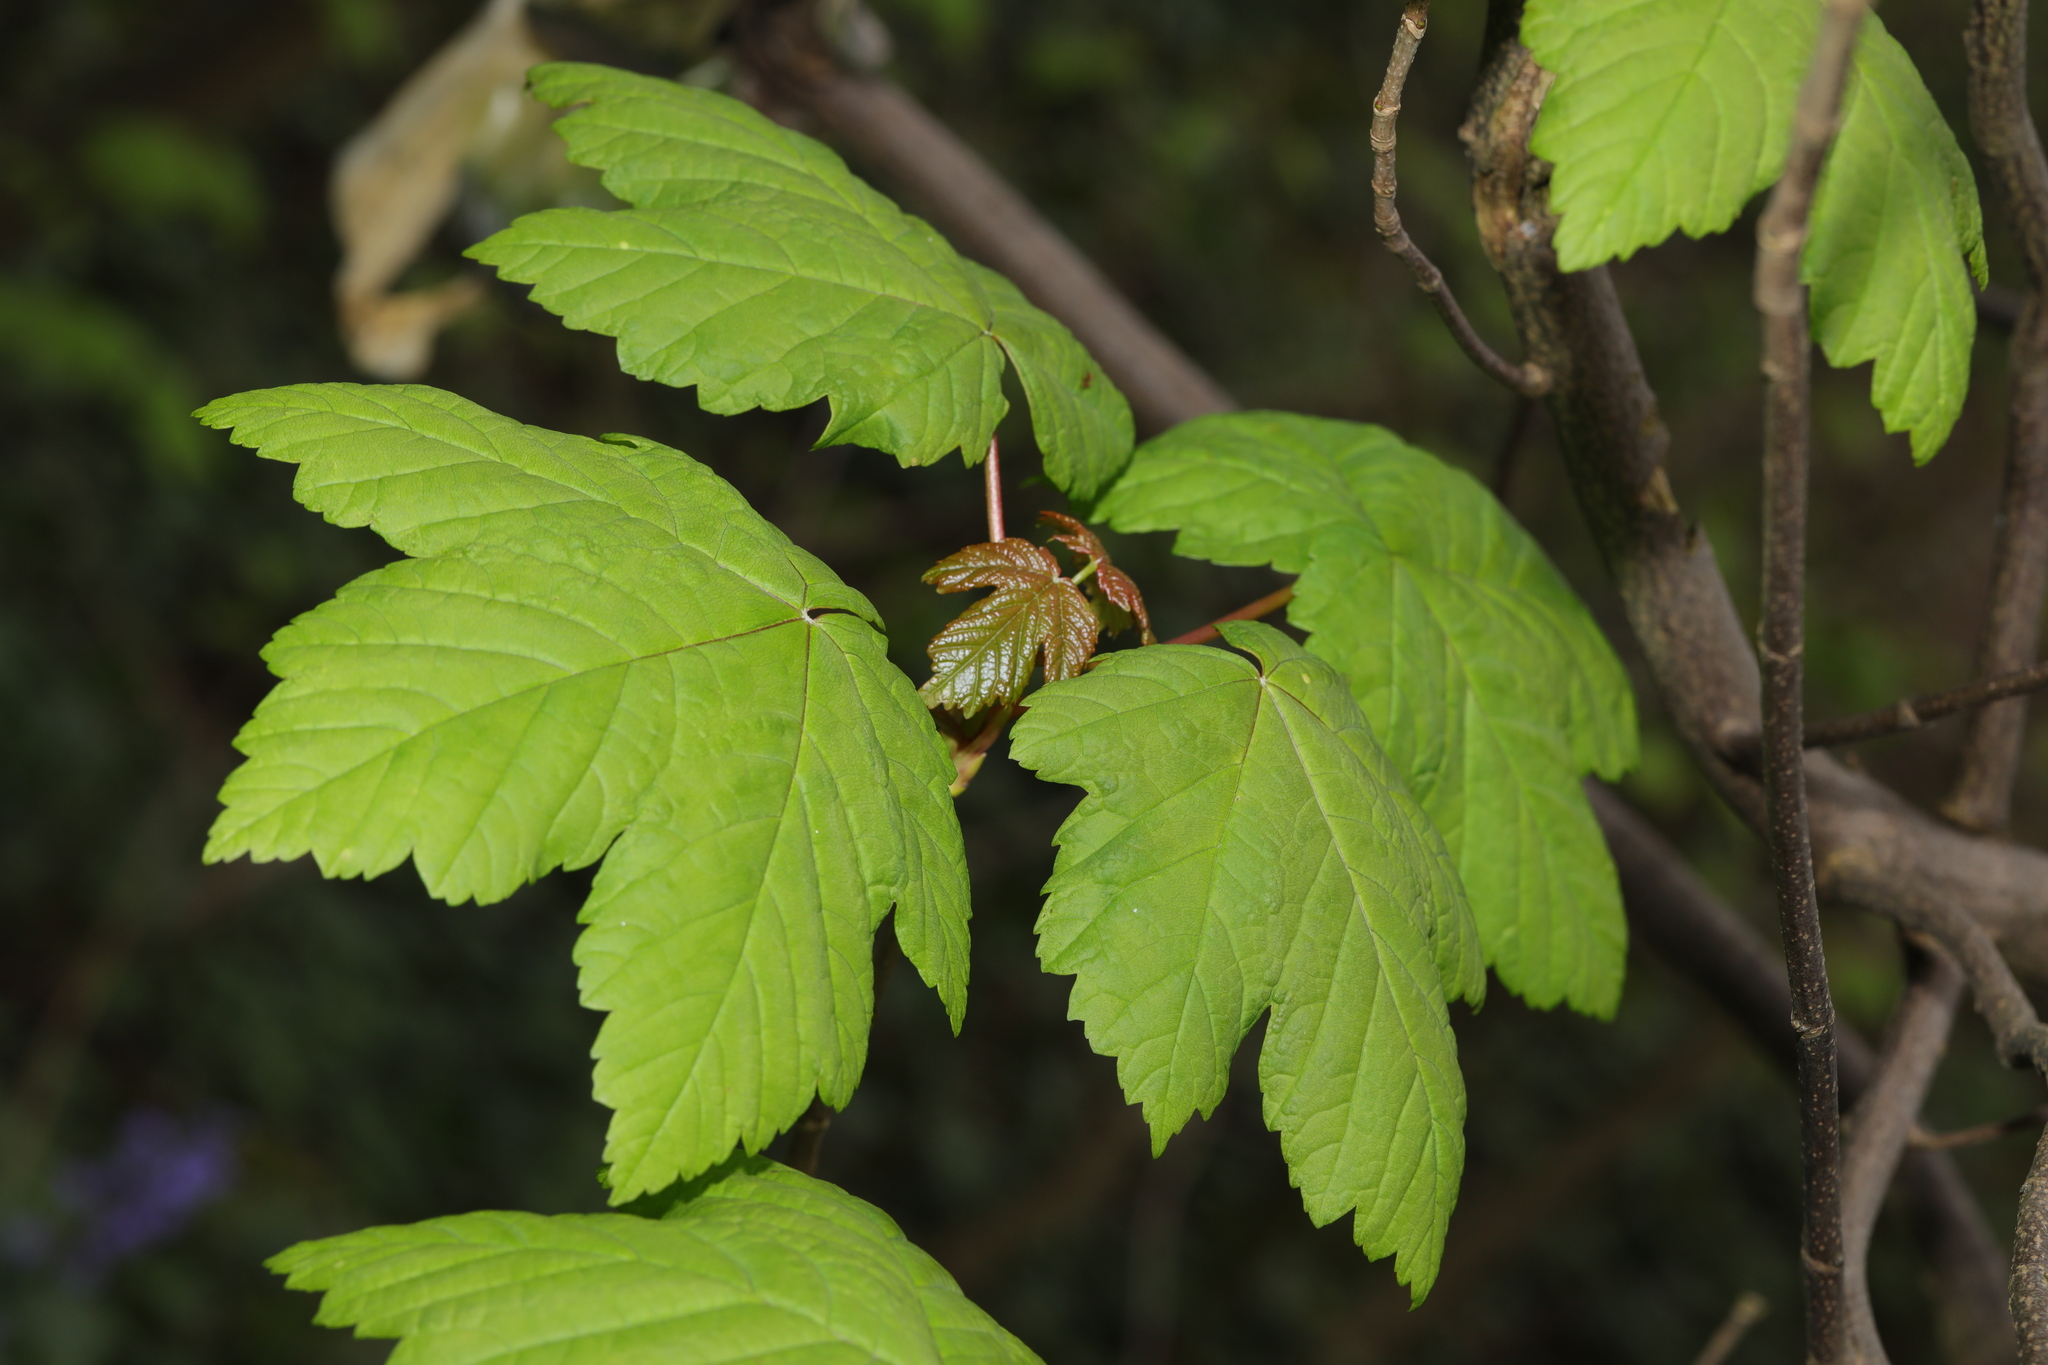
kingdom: Plantae
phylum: Tracheophyta
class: Magnoliopsida
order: Sapindales
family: Sapindaceae
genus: Acer
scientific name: Acer pseudoplatanus
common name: Sycamore
